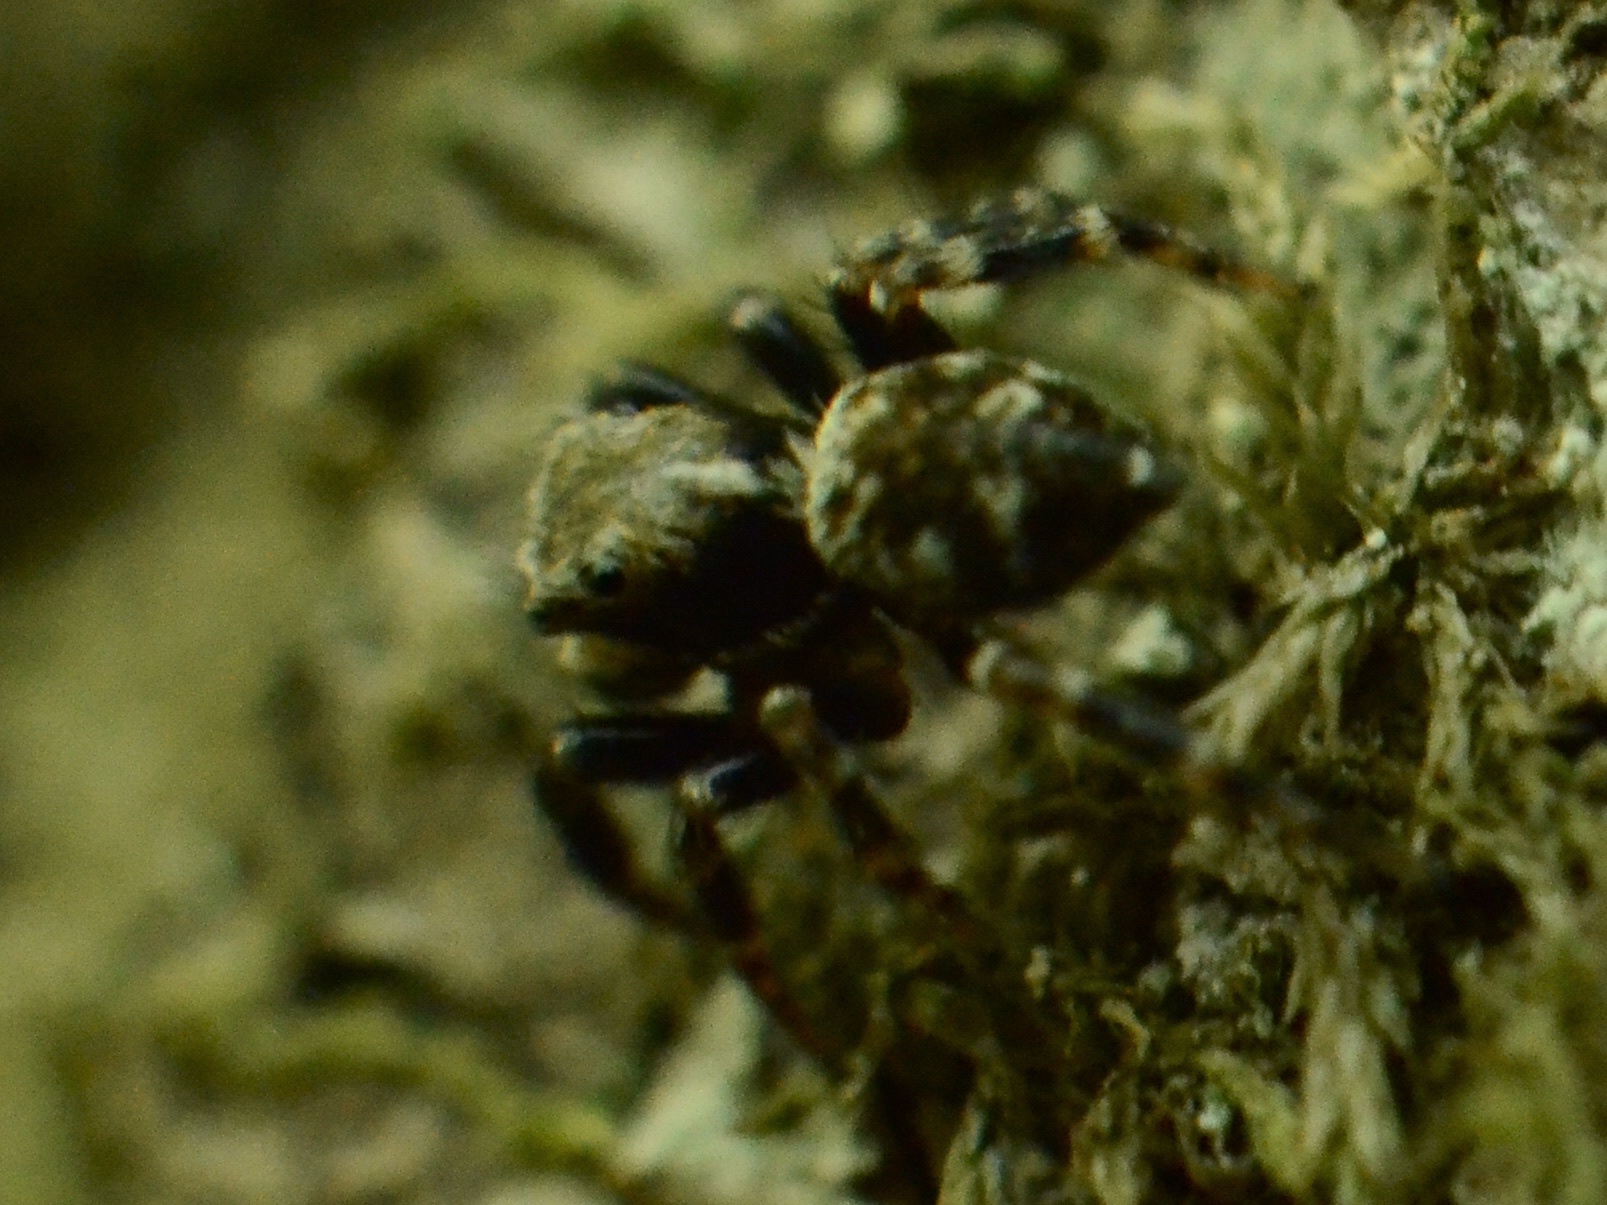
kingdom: Animalia
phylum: Arthropoda
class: Arachnida
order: Araneae
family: Salticidae
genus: Pseudeuophrys
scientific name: Pseudeuophrys erratica
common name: Jumping spider
